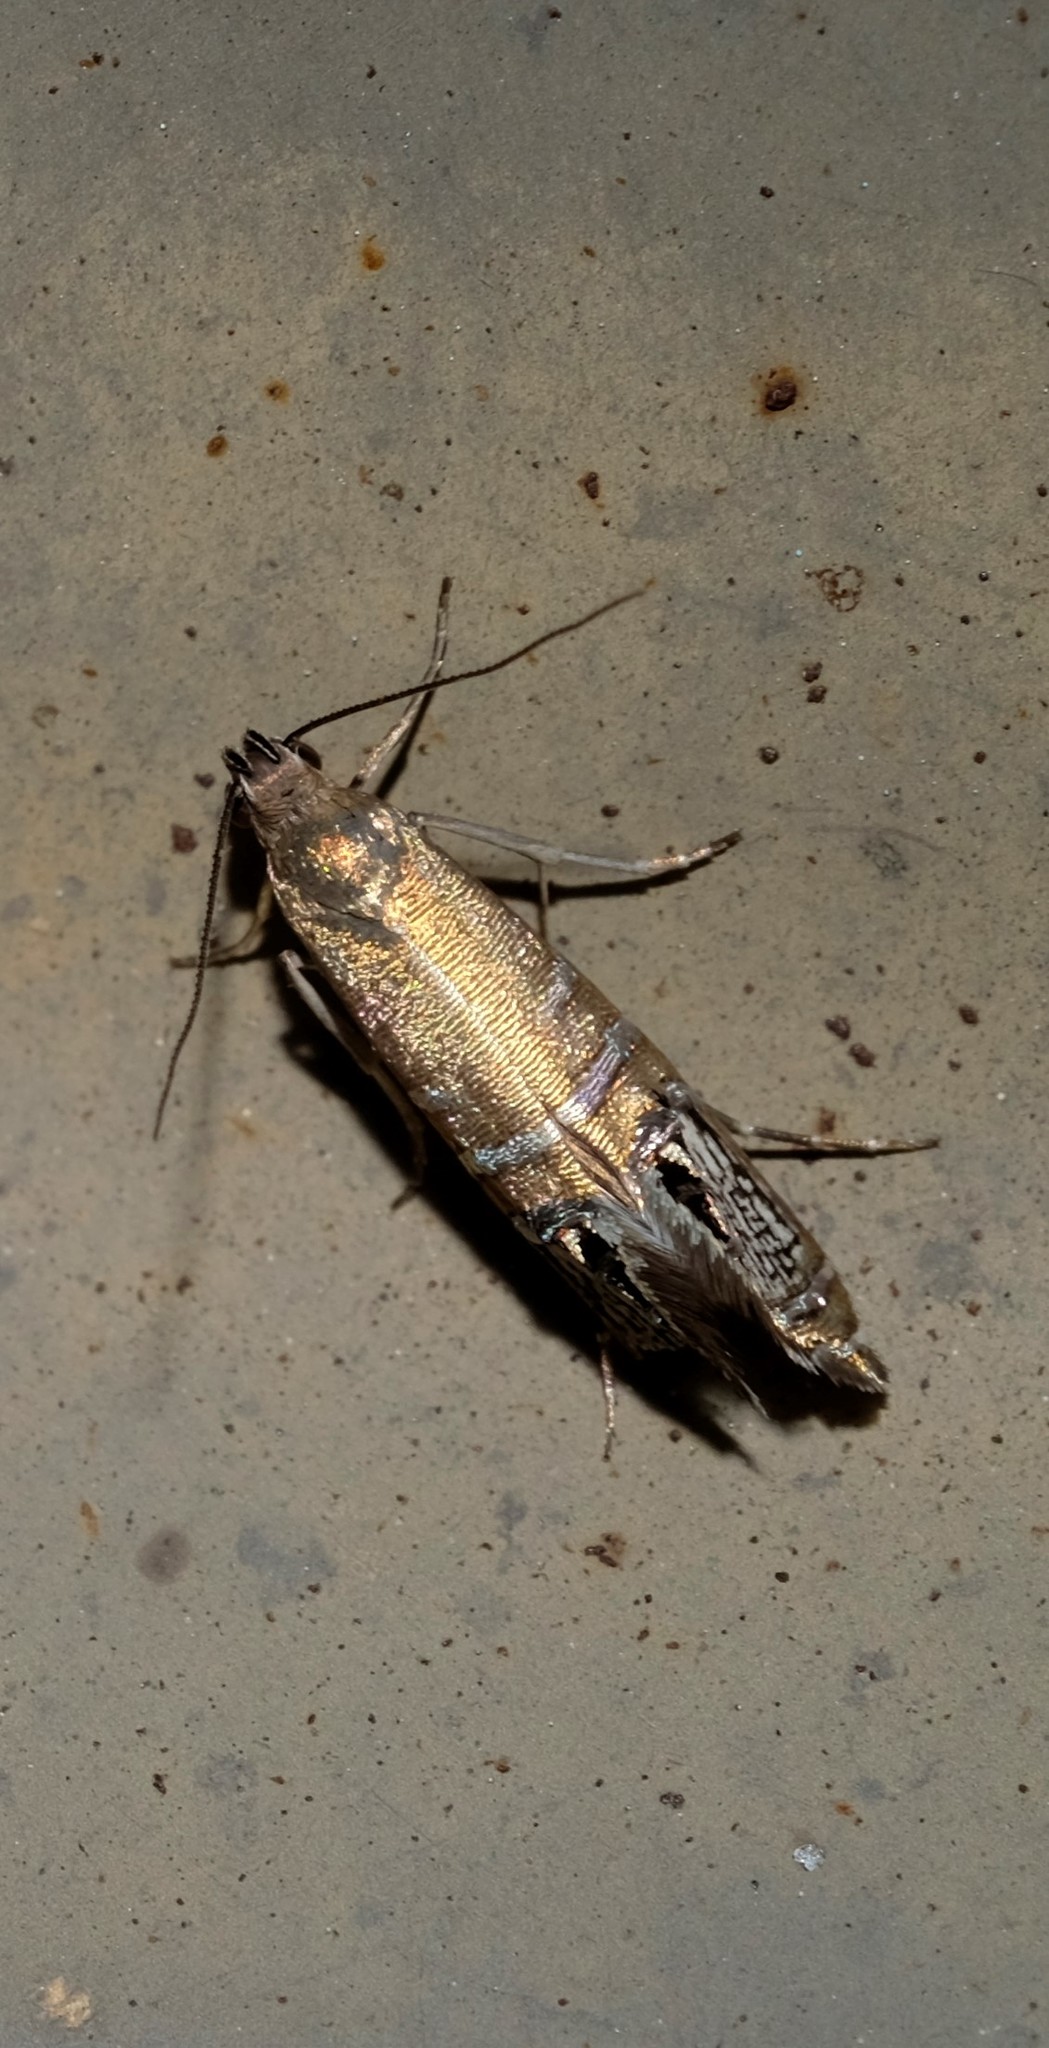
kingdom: Animalia
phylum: Arthropoda
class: Insecta
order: Lepidoptera
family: Glyphipterigidae
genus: Glyphipterix
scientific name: Glyphipterix cometophora
